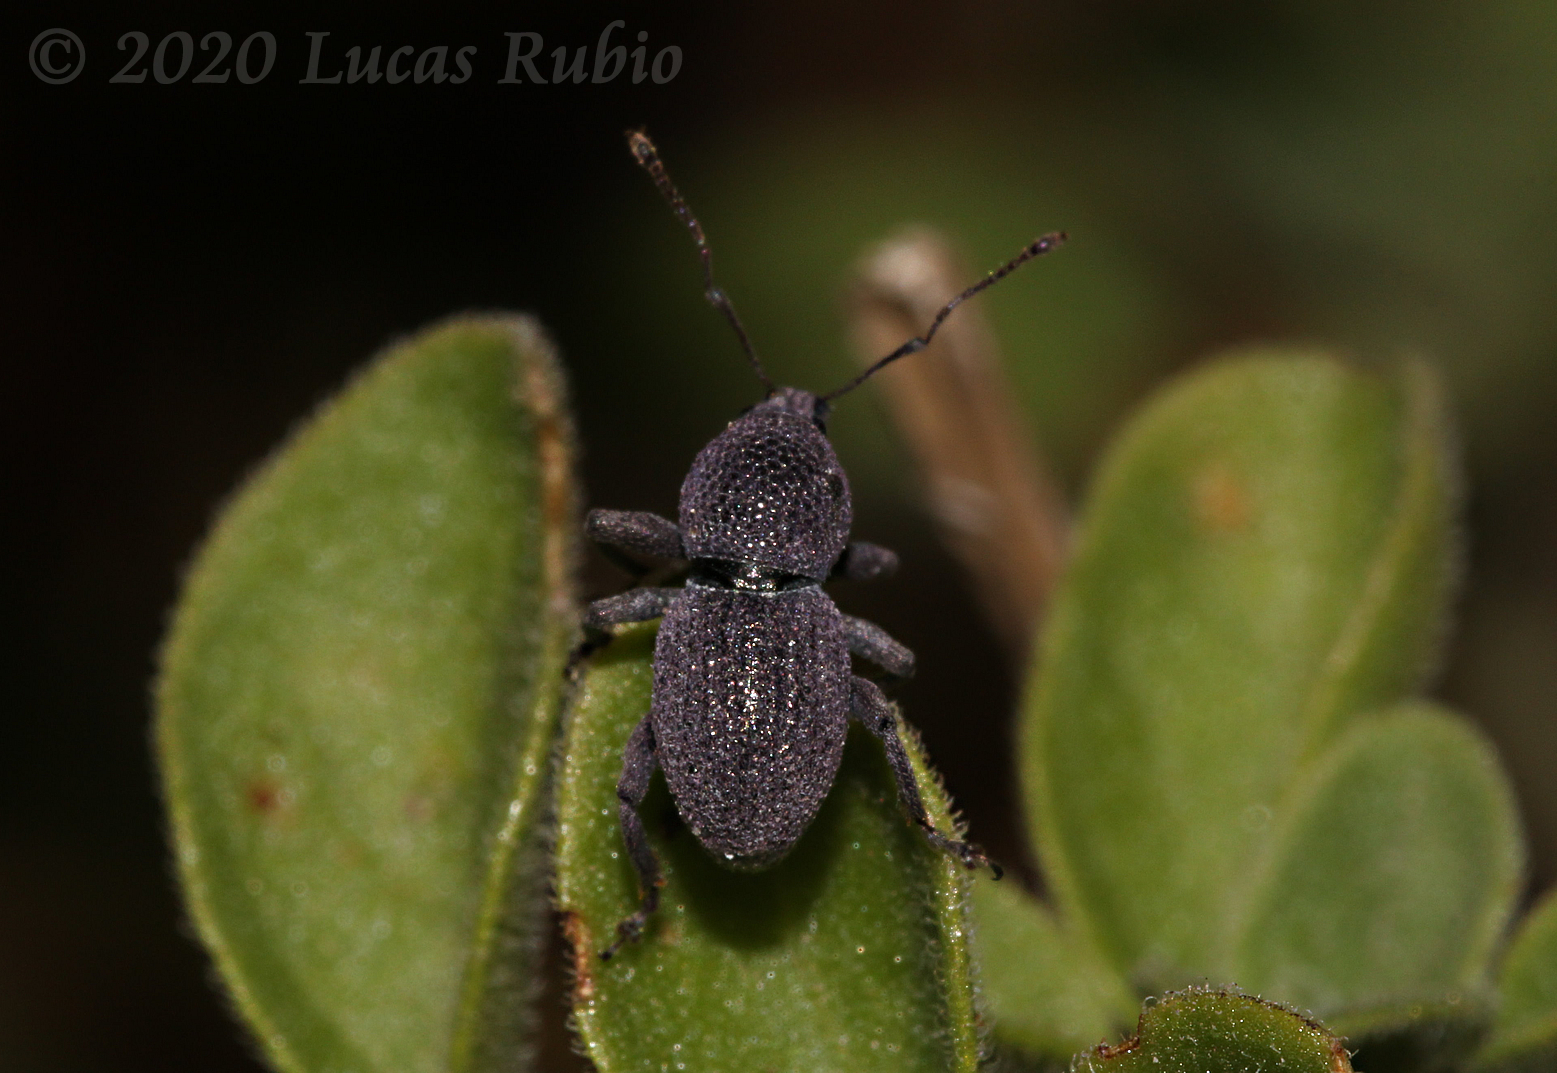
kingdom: Animalia
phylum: Arthropoda
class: Insecta
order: Coleoptera
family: Curculionidae
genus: Hyphantus
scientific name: Hyphantus
